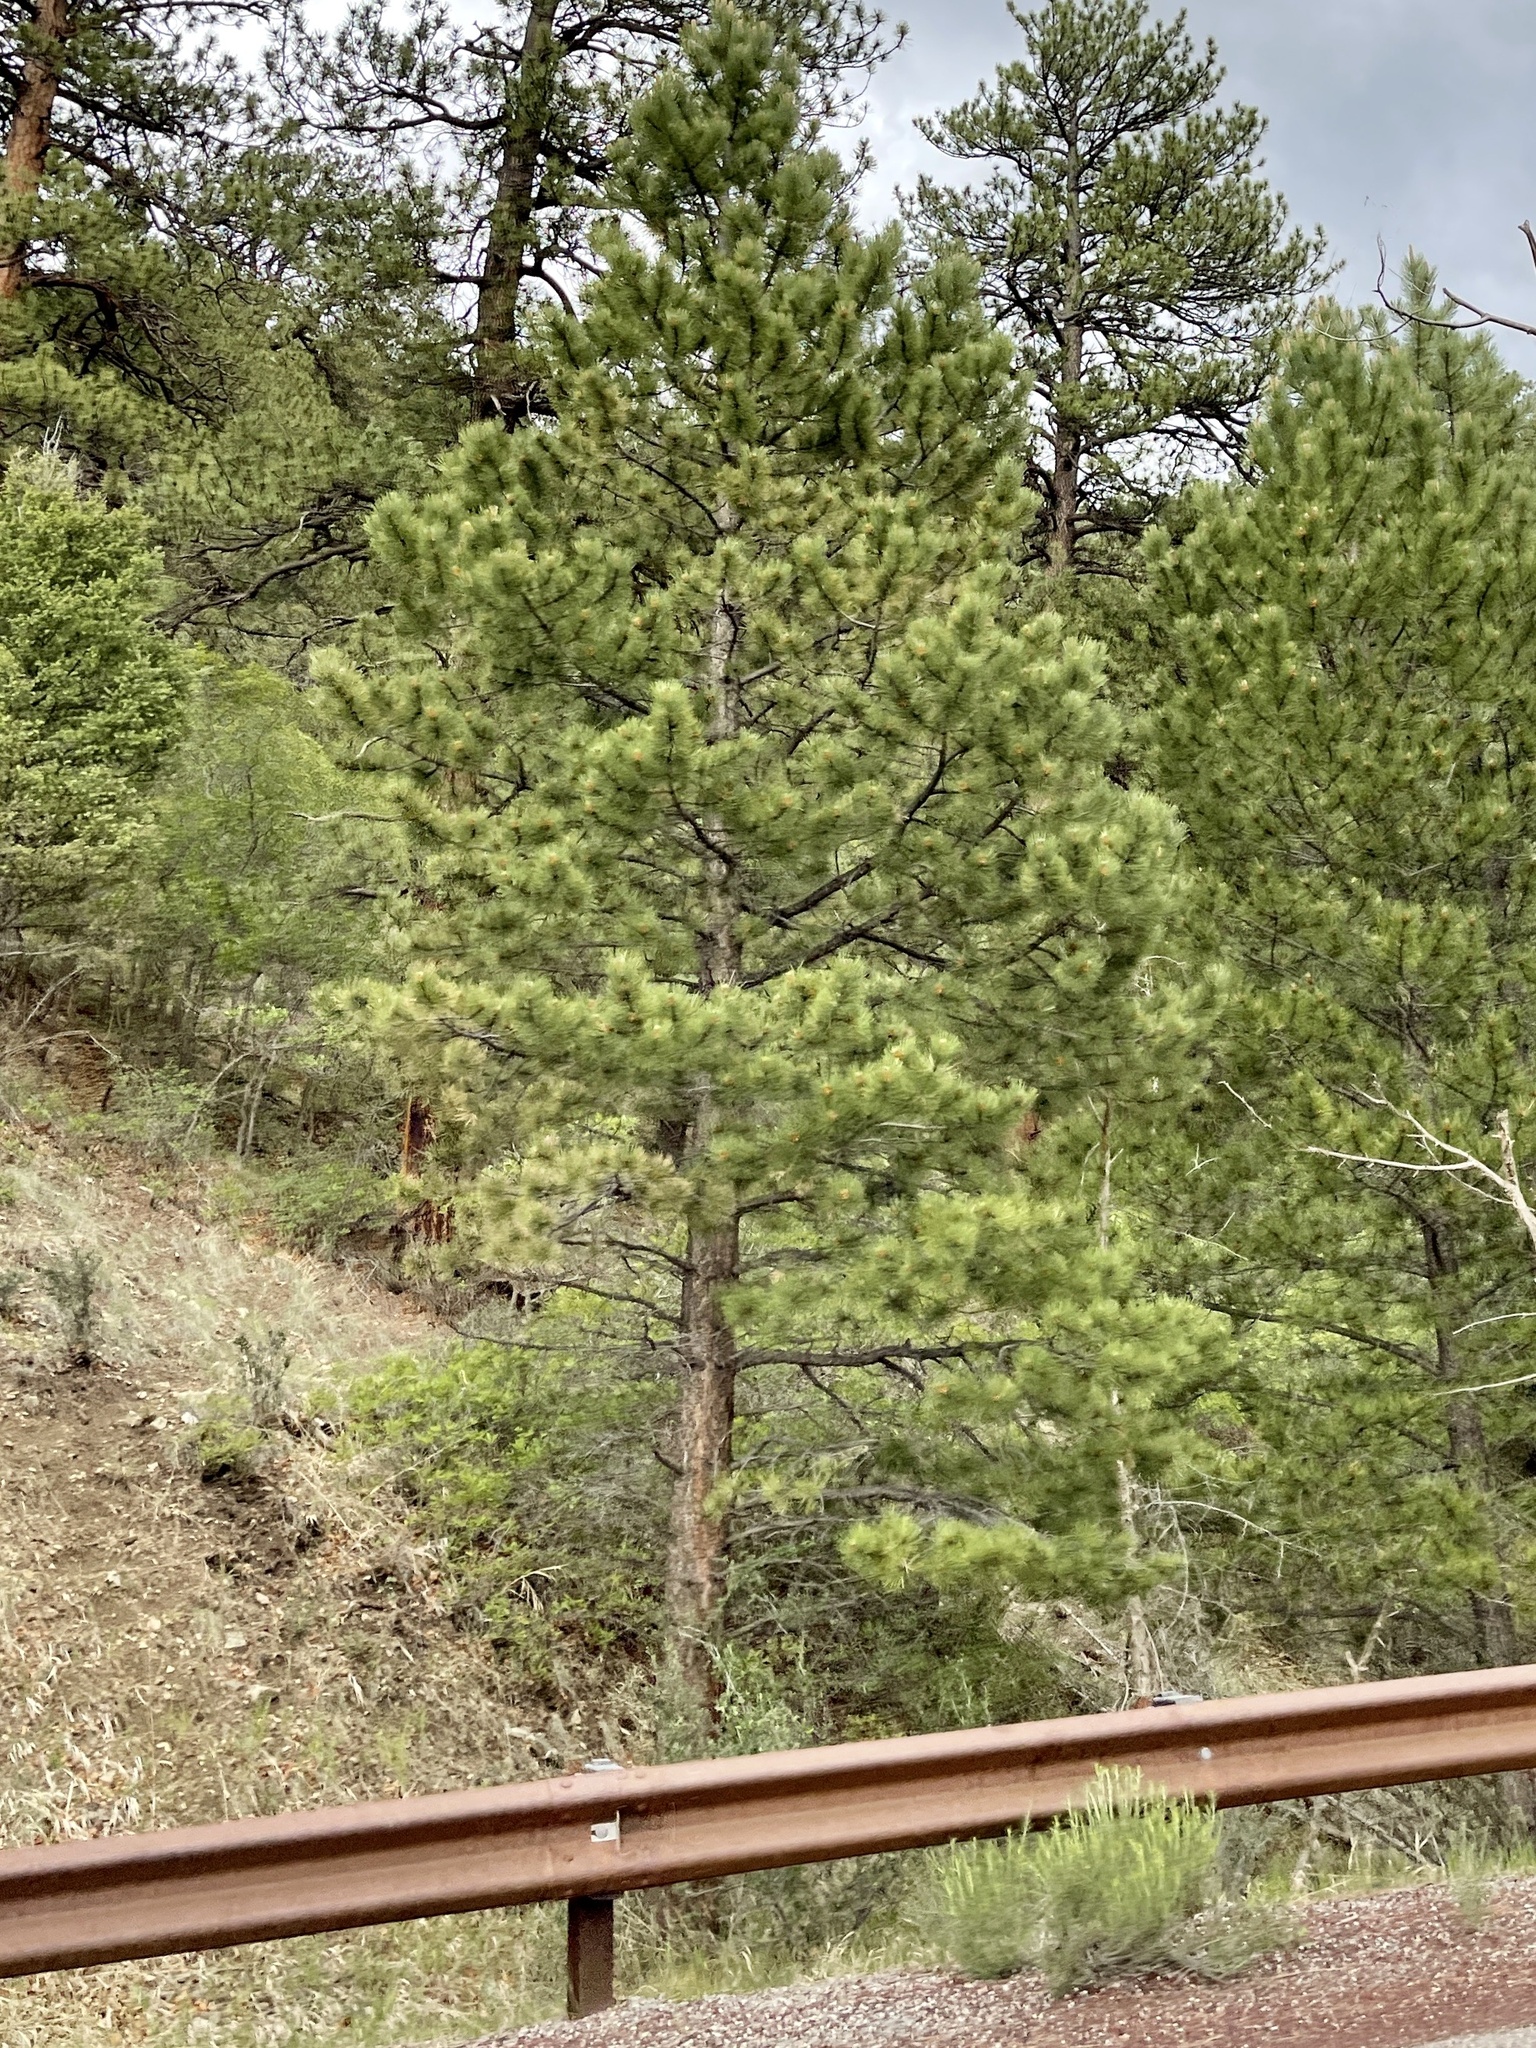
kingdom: Plantae
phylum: Tracheophyta
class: Pinopsida
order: Pinales
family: Pinaceae
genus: Pinus
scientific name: Pinus ponderosa
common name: Western yellow-pine
